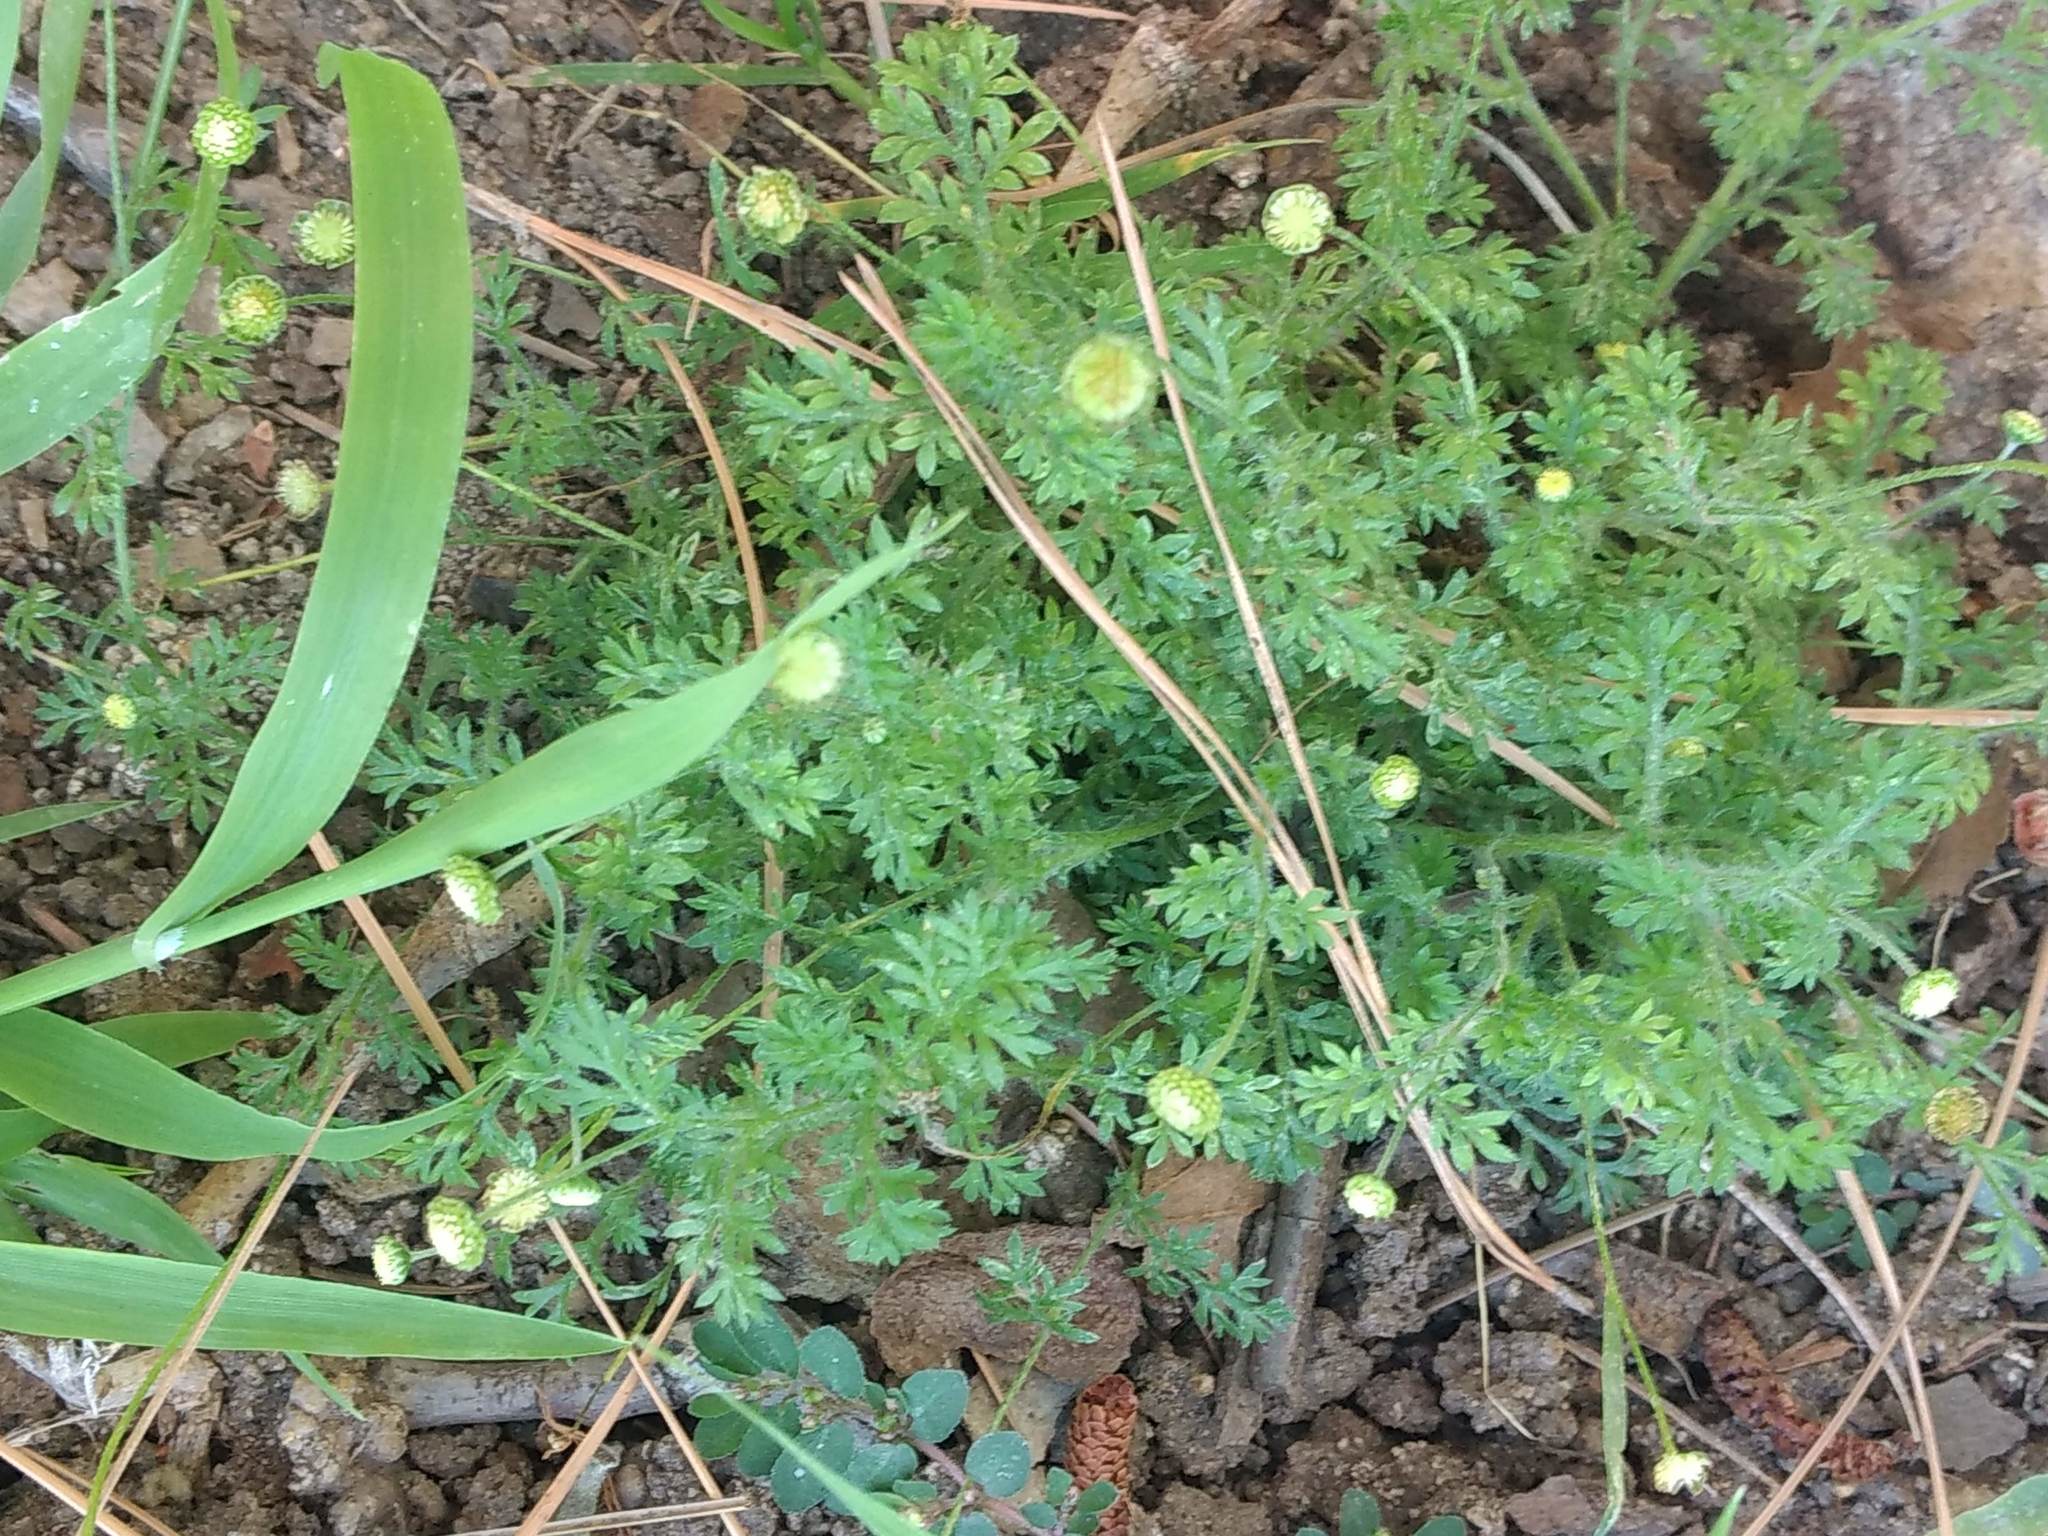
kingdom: Plantae
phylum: Tracheophyta
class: Magnoliopsida
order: Asterales
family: Asteraceae
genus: Cotula
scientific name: Cotula australis
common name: Australian waterbuttons
